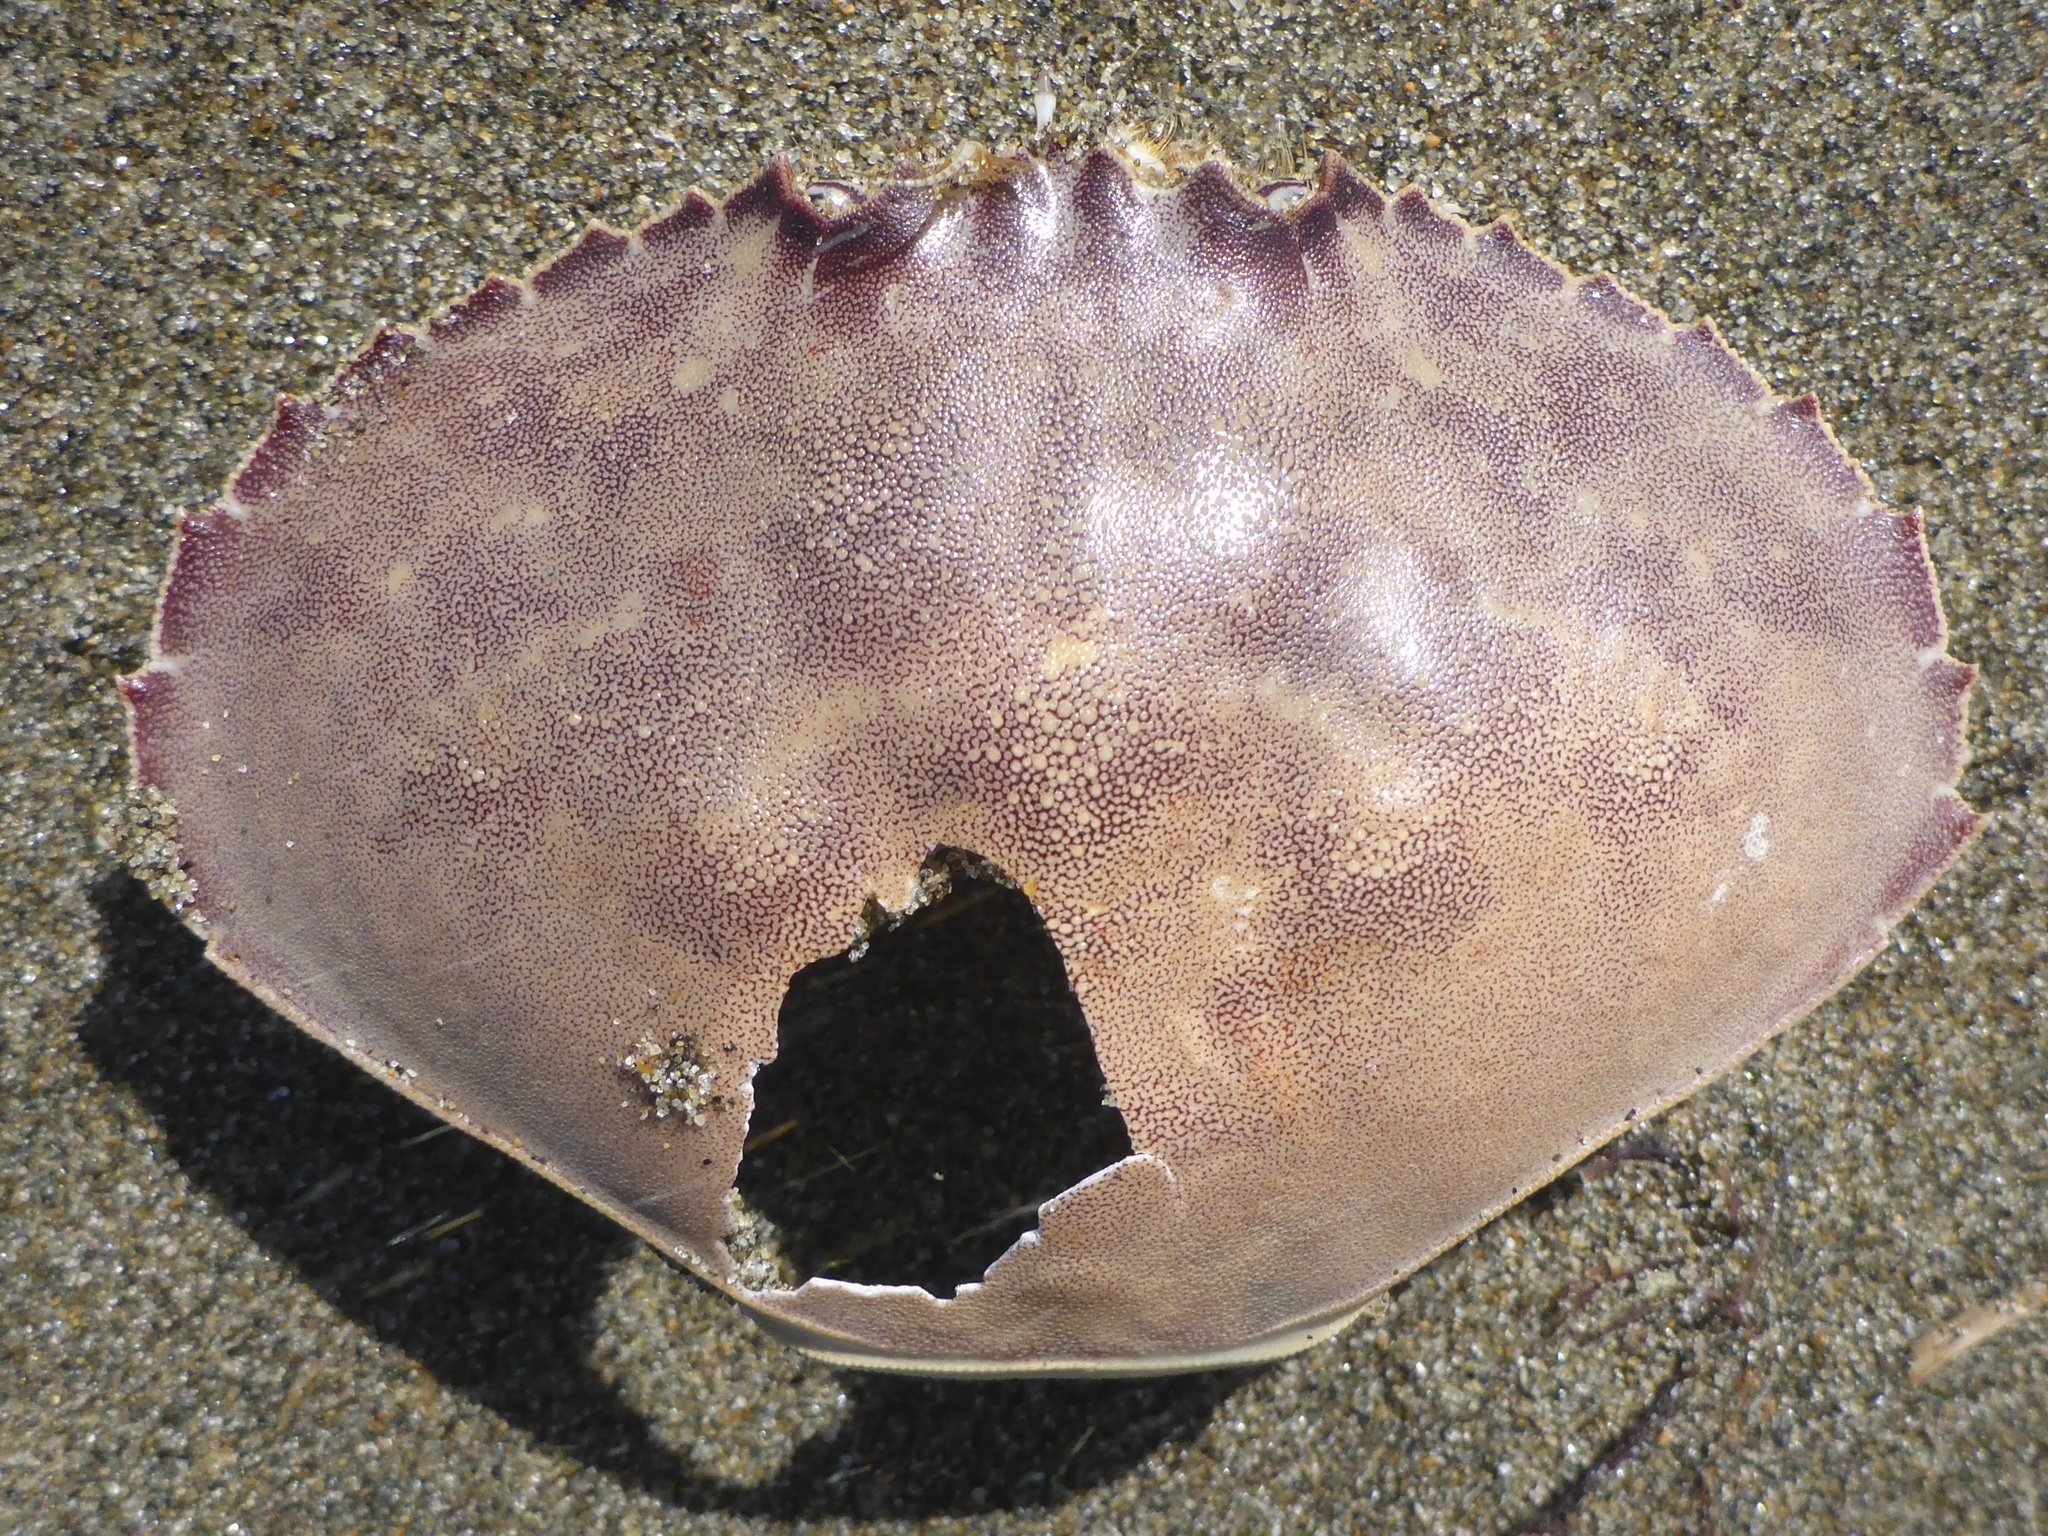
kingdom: Animalia
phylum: Arthropoda
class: Malacostraca
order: Decapoda
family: Cancridae
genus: Metacarcinus
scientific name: Metacarcinus gracilis
